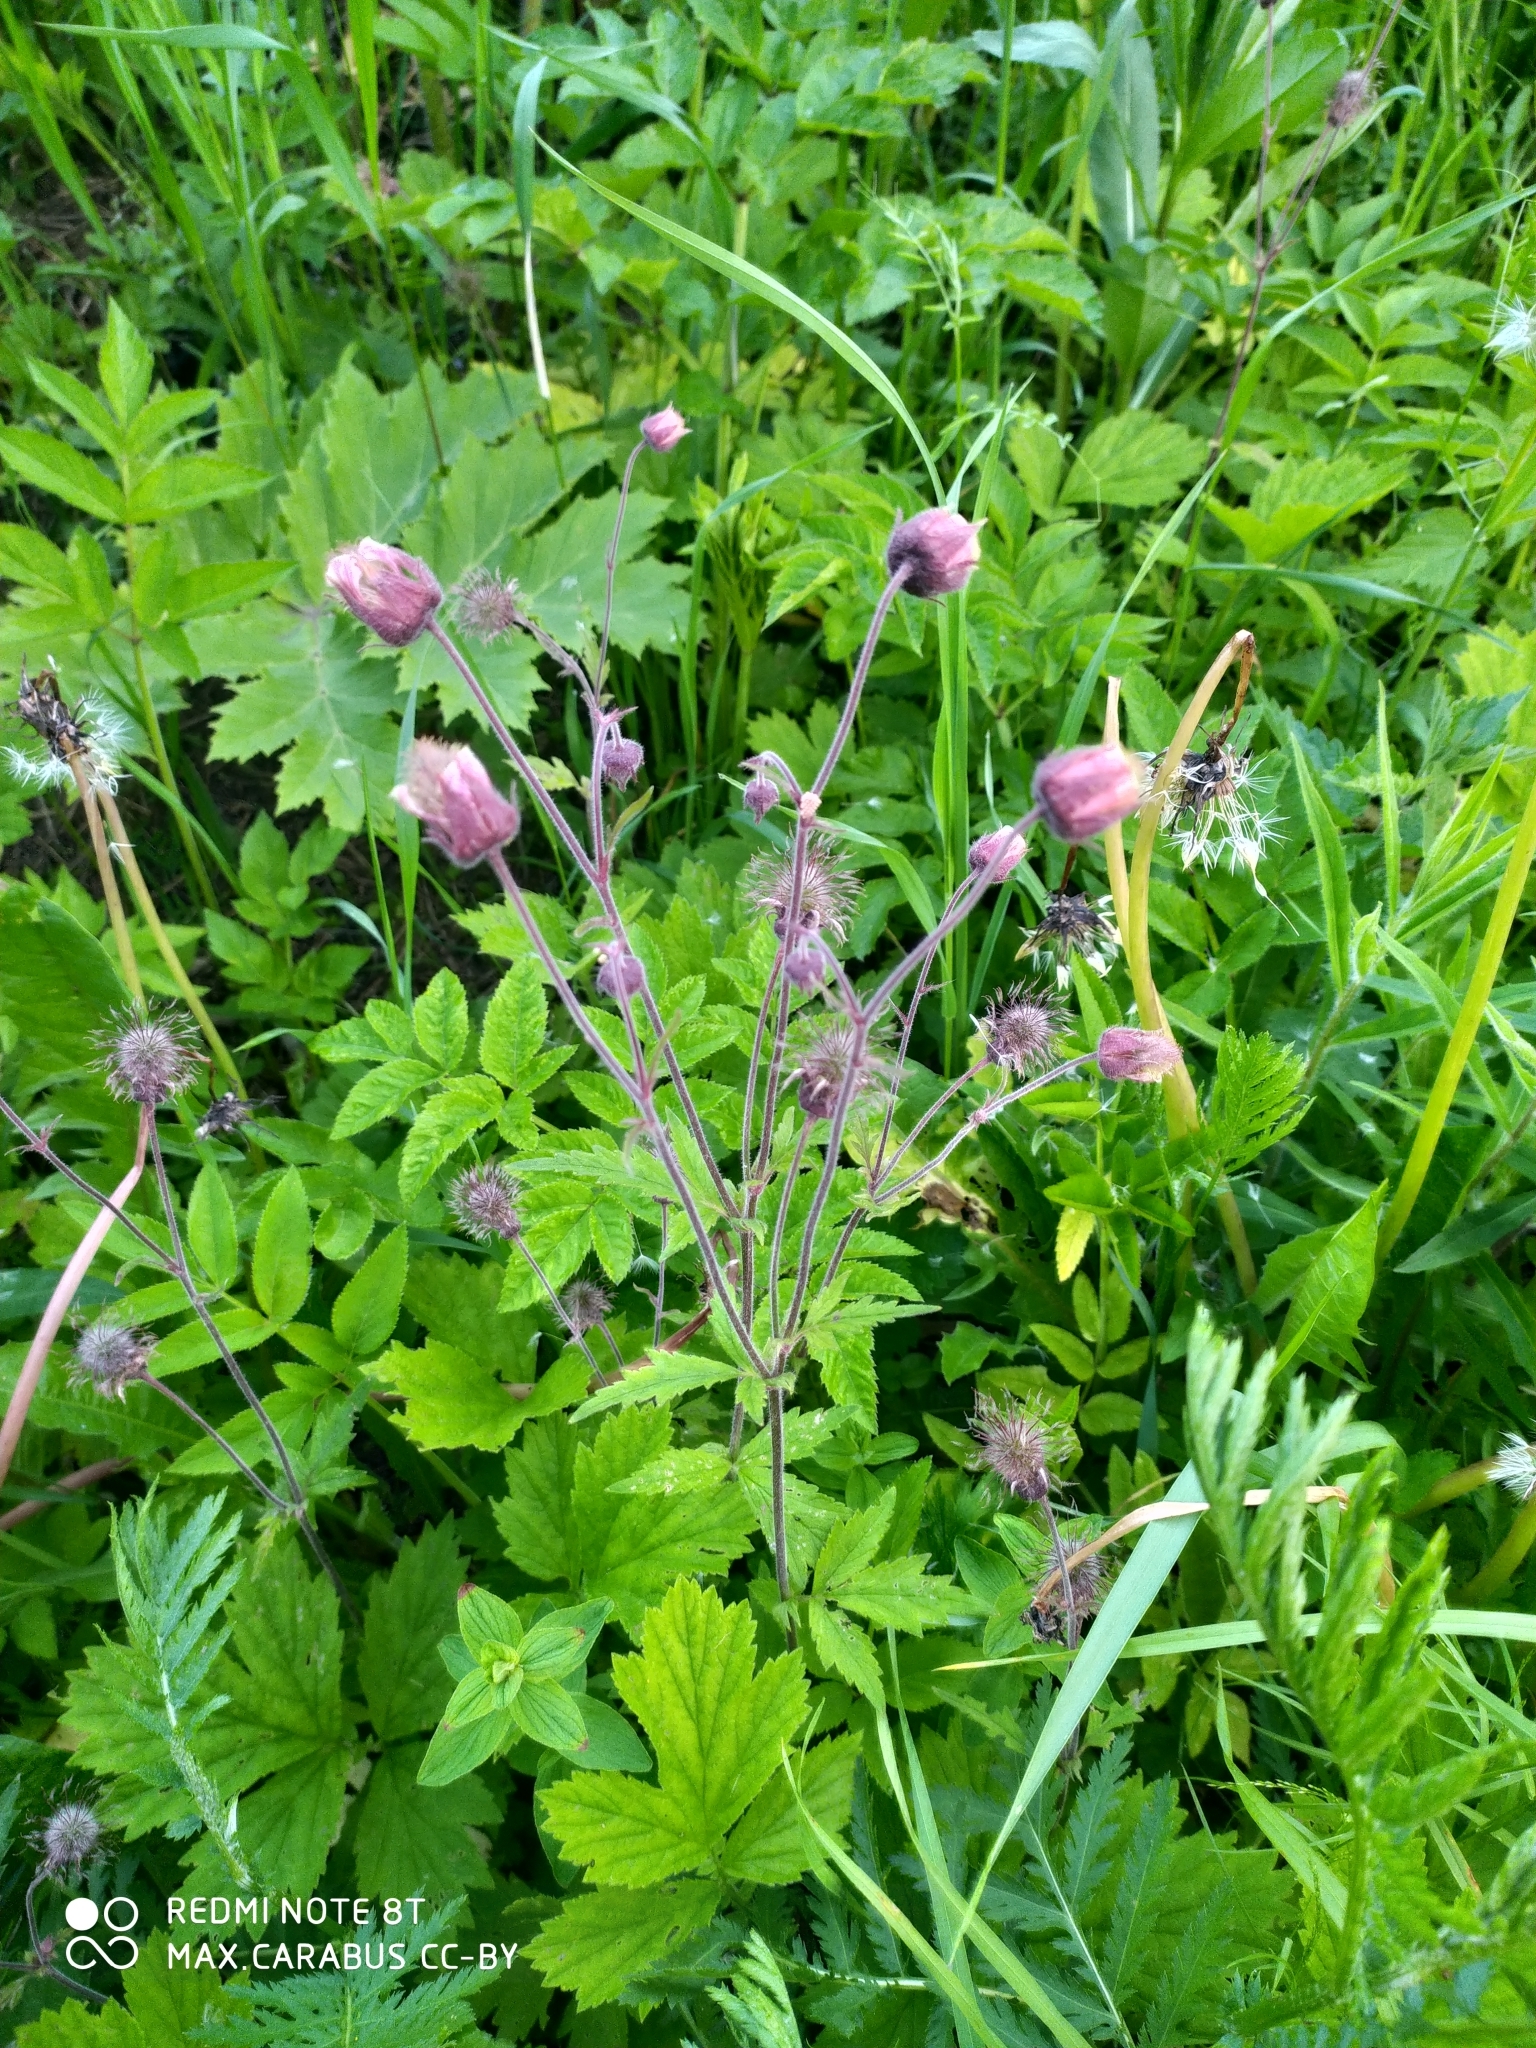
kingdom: Plantae
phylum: Tracheophyta
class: Magnoliopsida
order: Rosales
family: Rosaceae
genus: Geum
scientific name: Geum rivale
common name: Water avens
